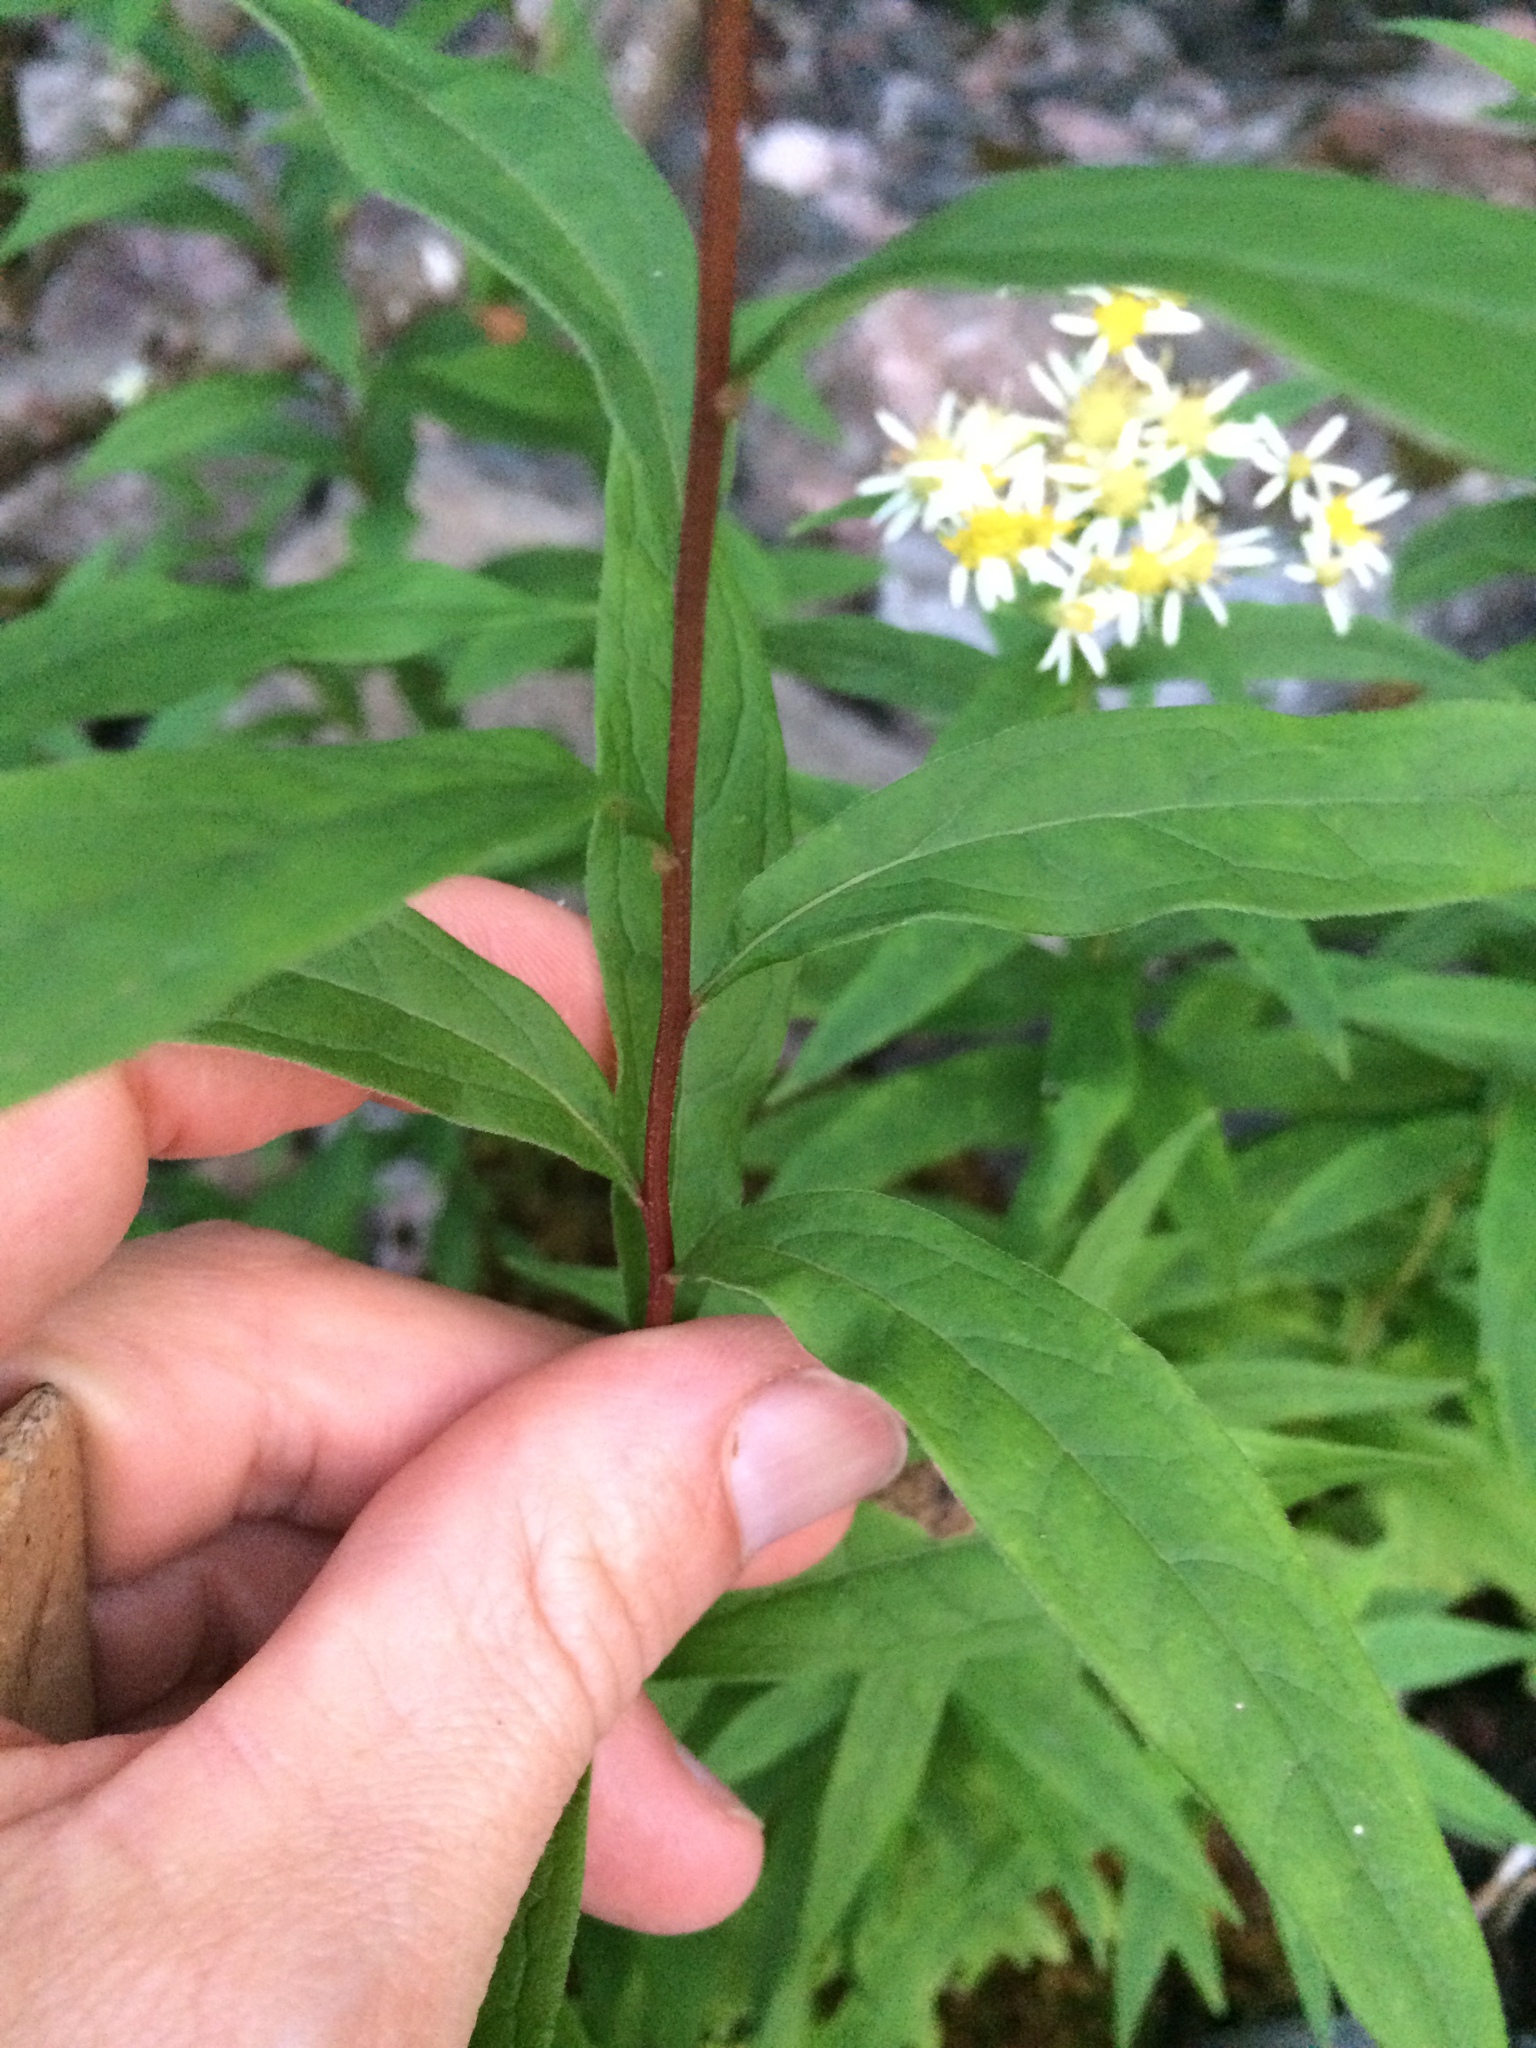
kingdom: Plantae
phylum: Tracheophyta
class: Magnoliopsida
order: Asterales
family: Asteraceae
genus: Doellingeria
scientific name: Doellingeria umbellata
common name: Flat-top white aster
